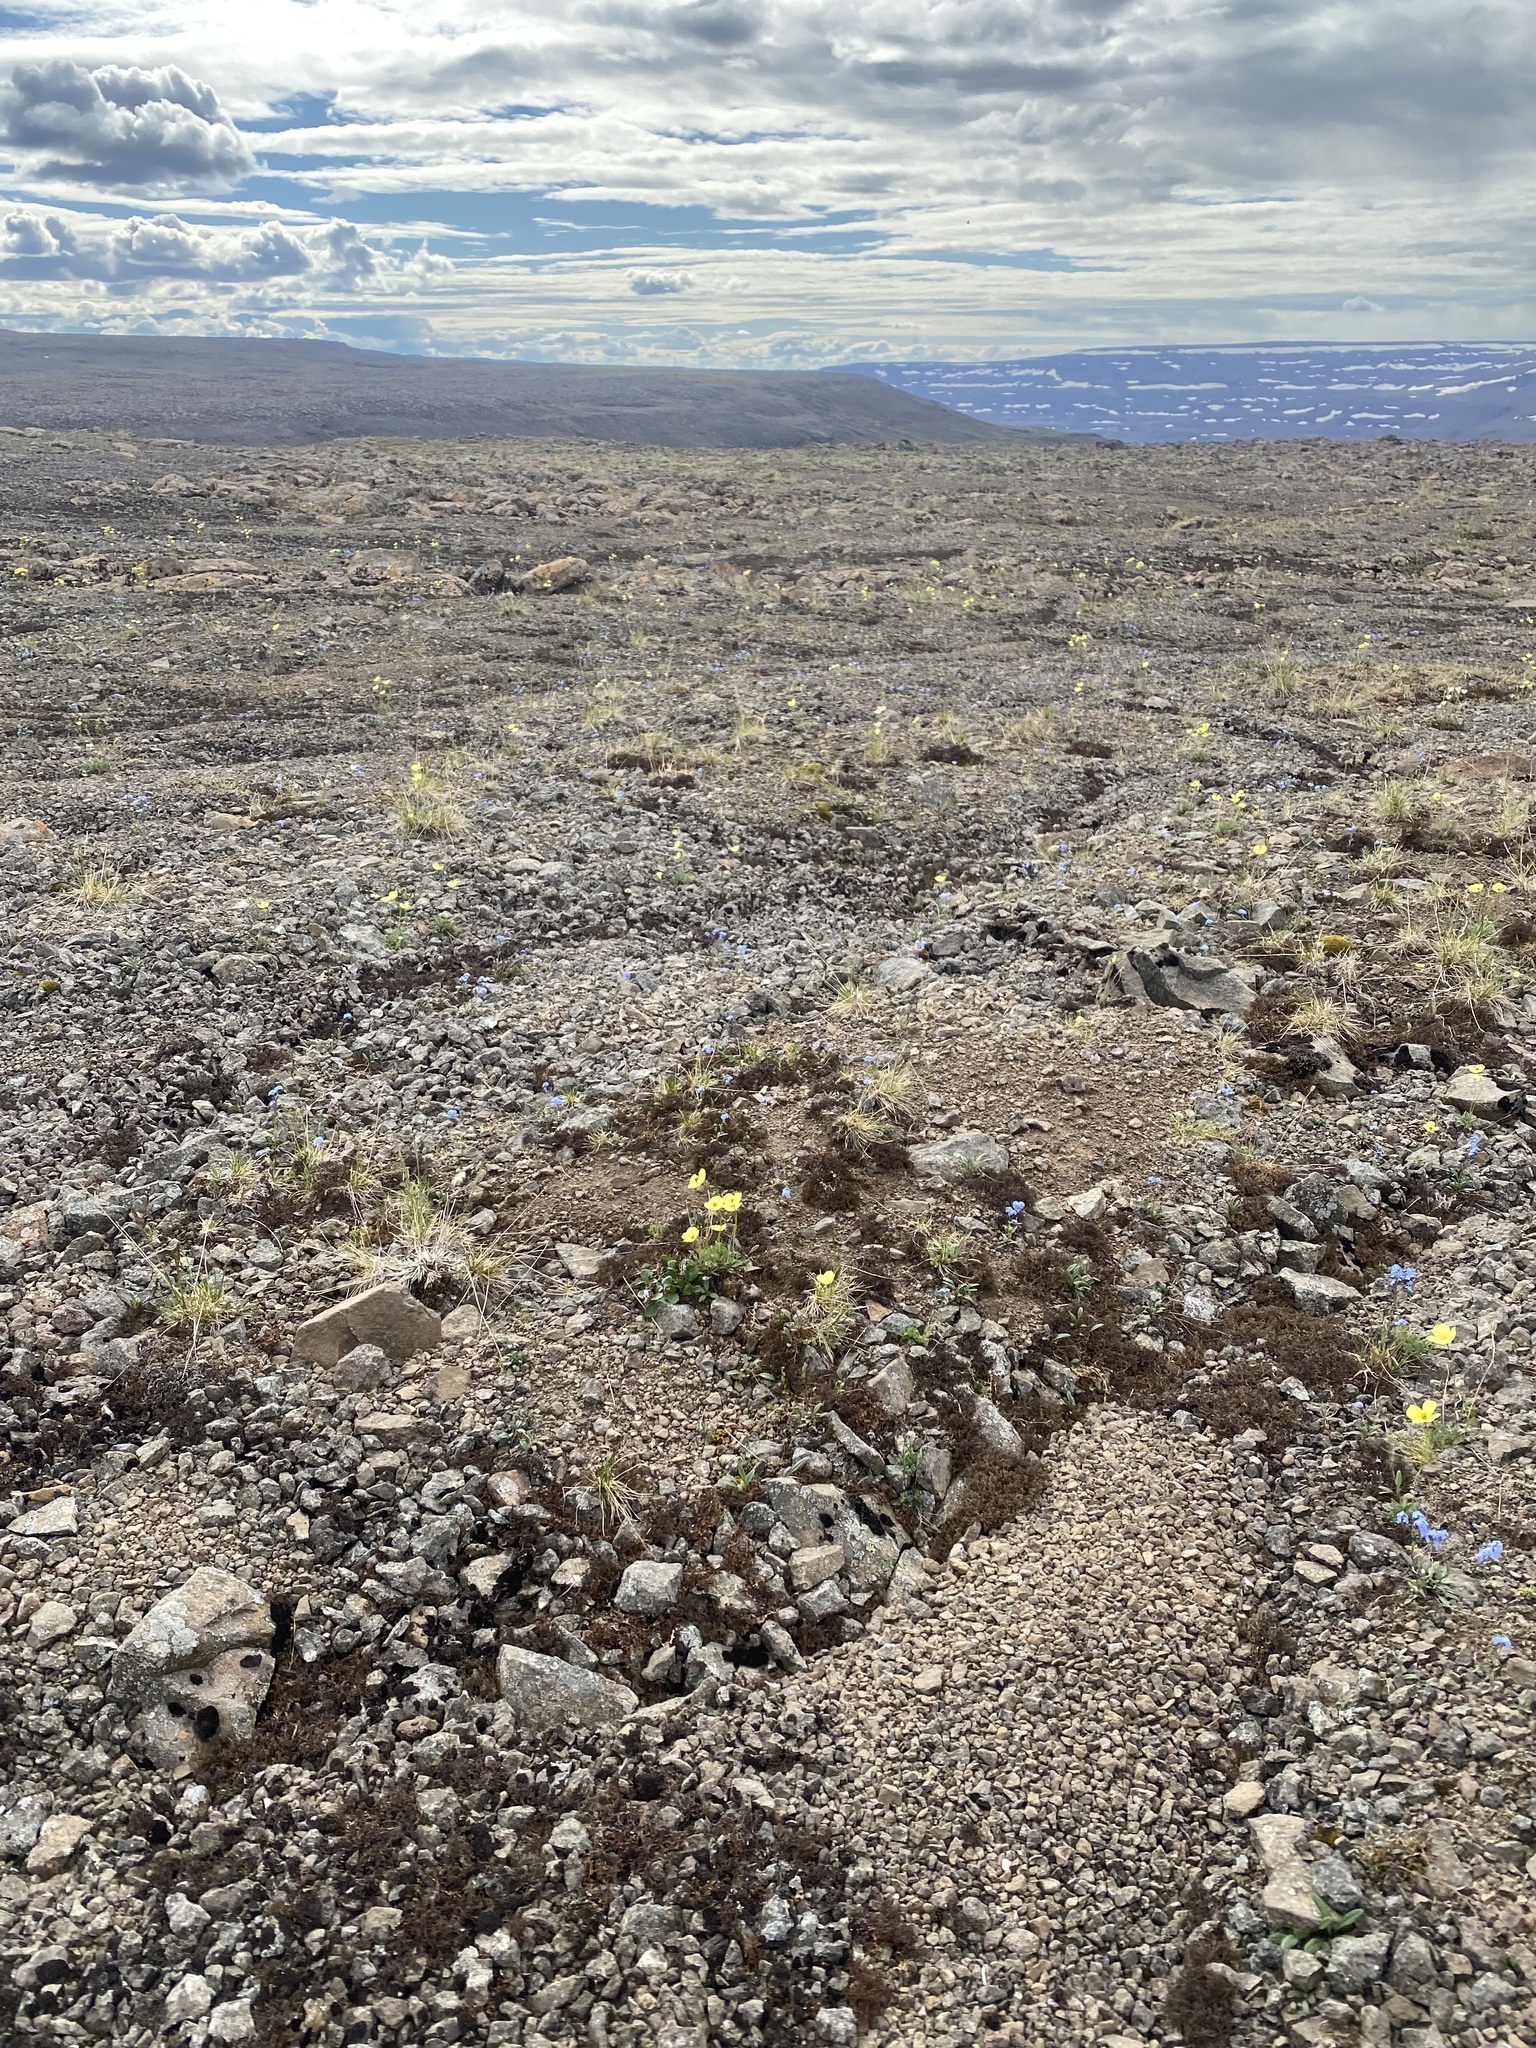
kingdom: Plantae
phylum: Tracheophyta
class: Magnoliopsida
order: Ranunculales
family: Papaveraceae
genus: Papaver
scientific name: Papaver pulvinatum
